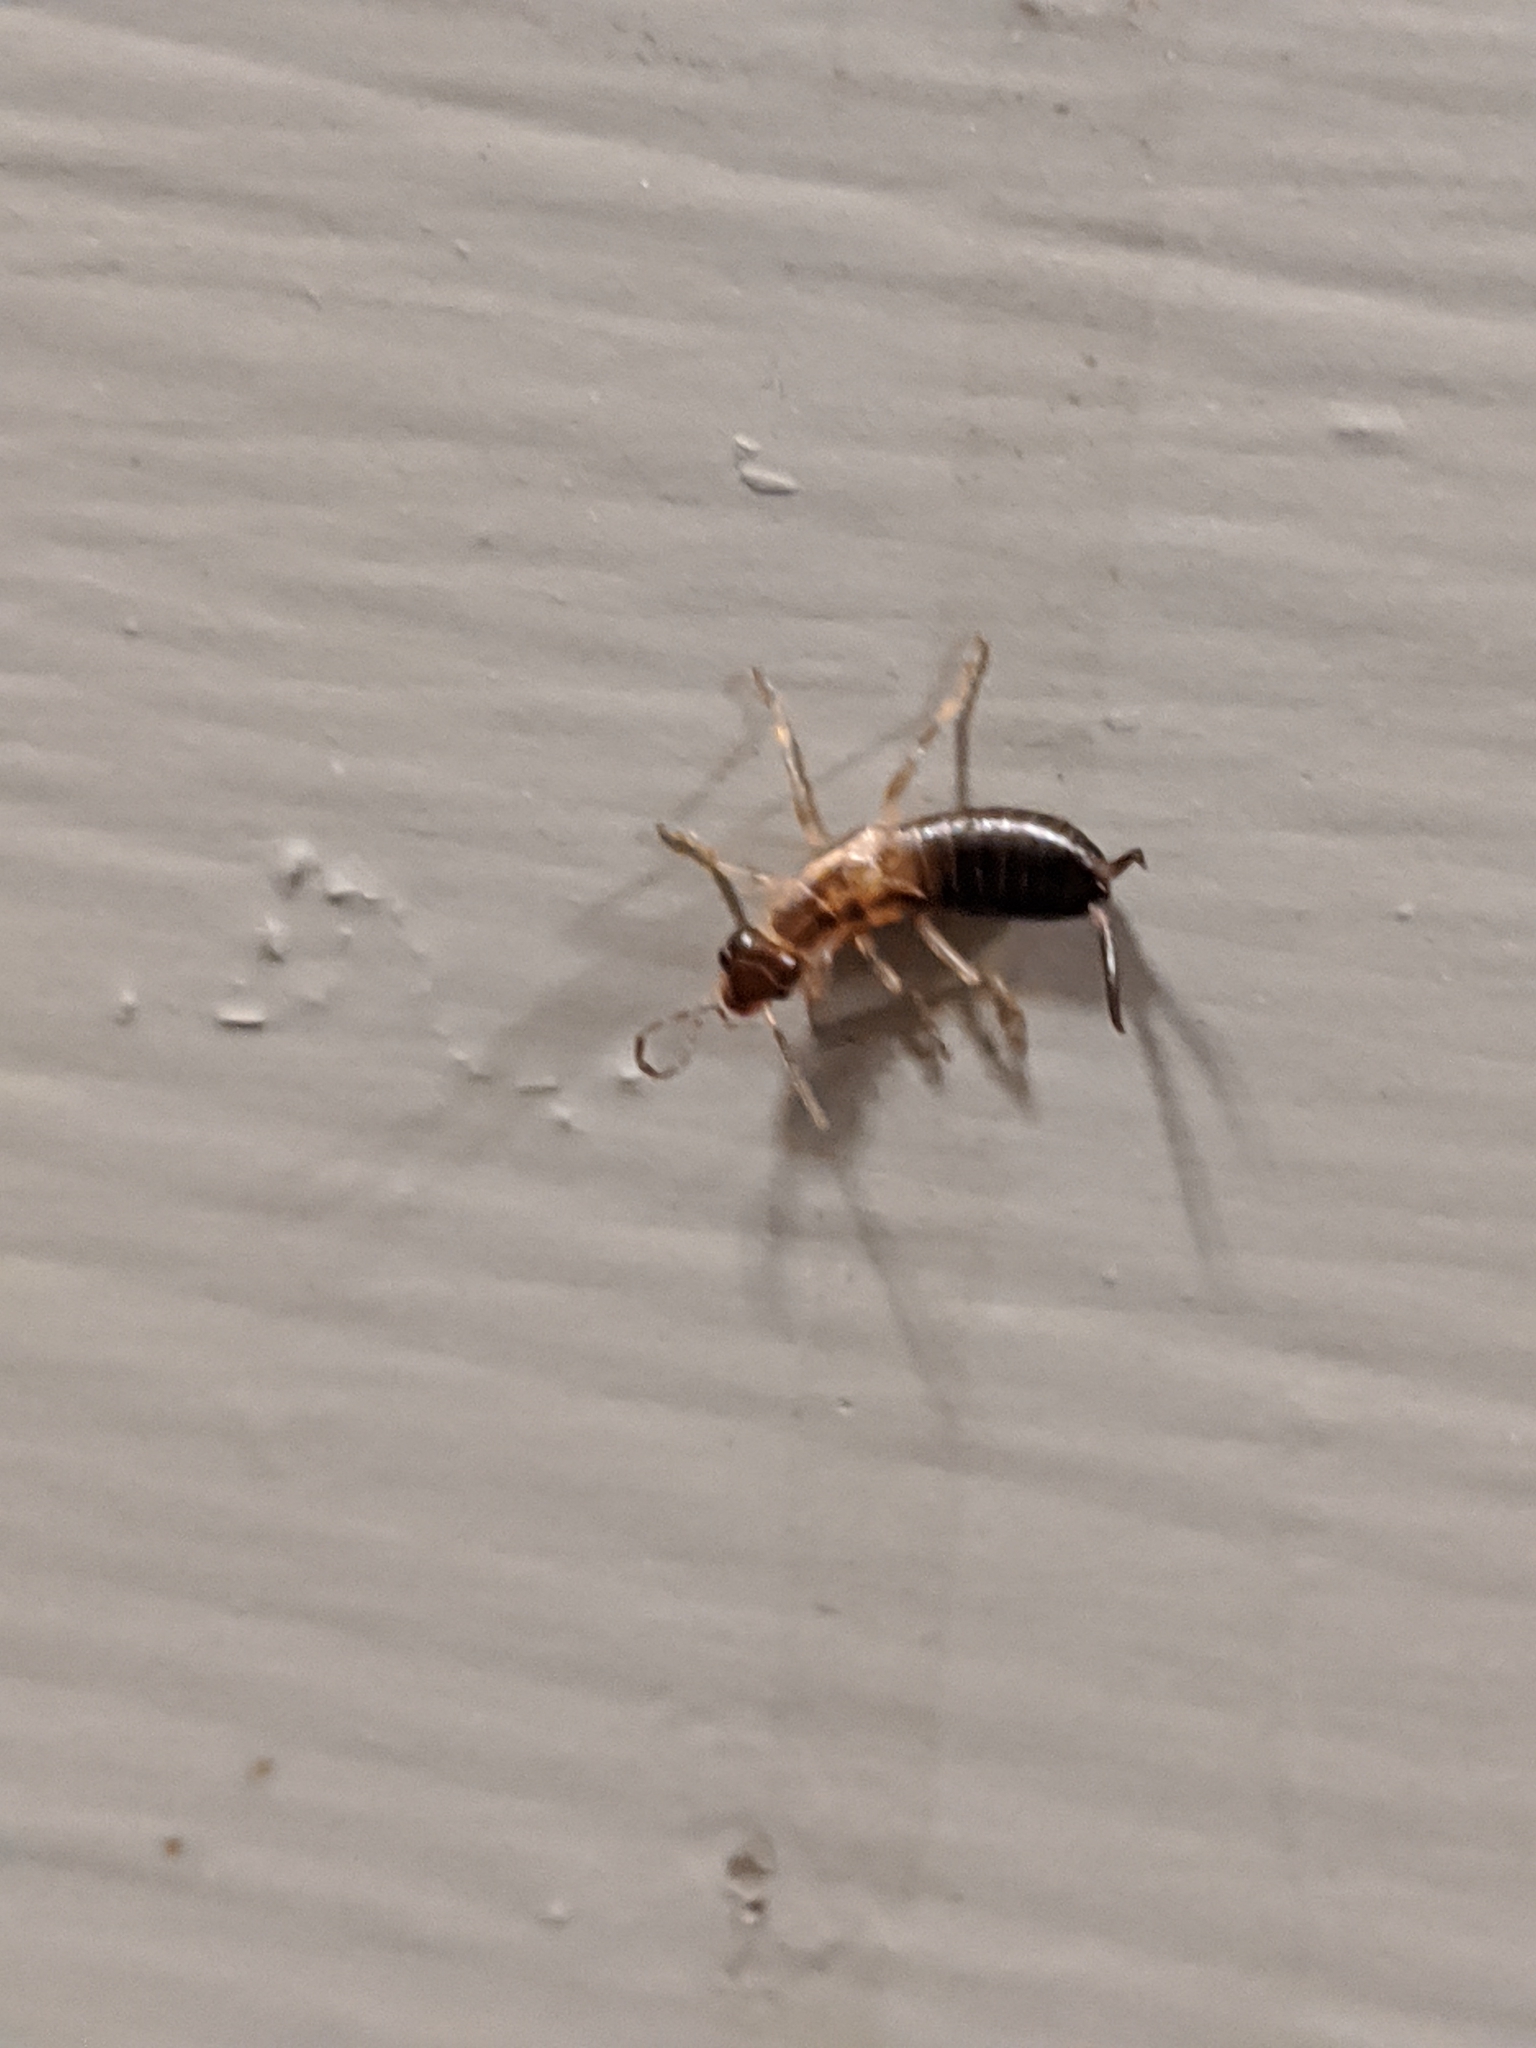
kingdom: Animalia
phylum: Arthropoda
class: Insecta
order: Dermaptera
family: Forficulidae
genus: Forficula
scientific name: Forficula
